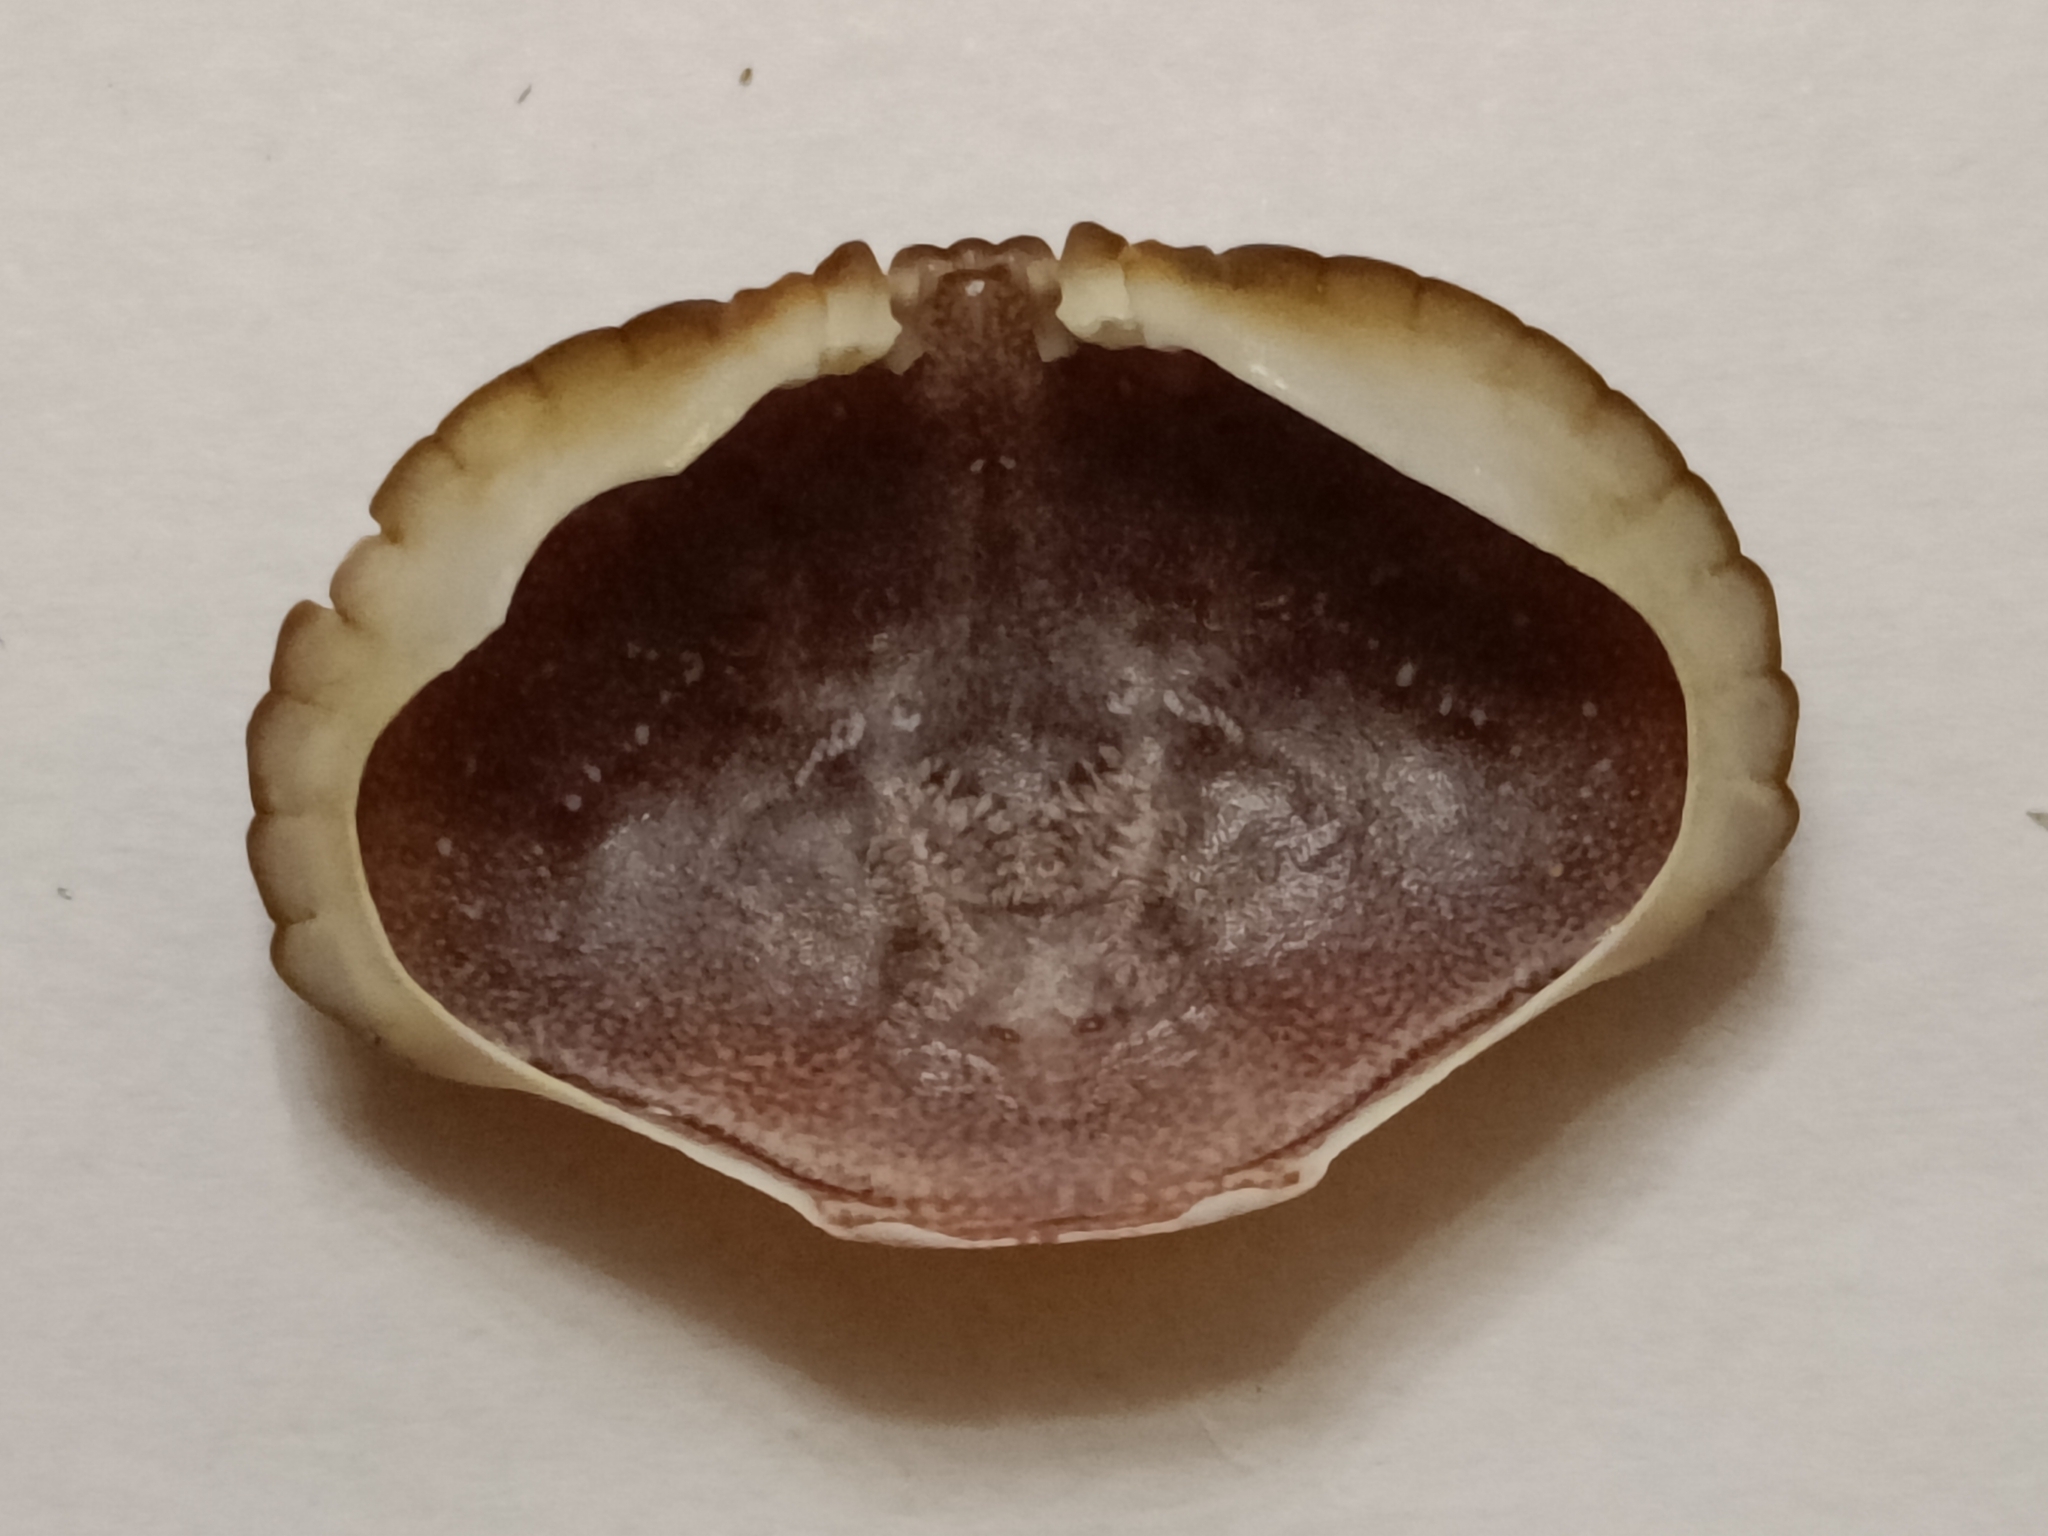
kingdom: Animalia
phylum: Arthropoda
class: Malacostraca
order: Decapoda
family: Cancridae
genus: Cancer
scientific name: Cancer pagurus
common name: Edible crab
